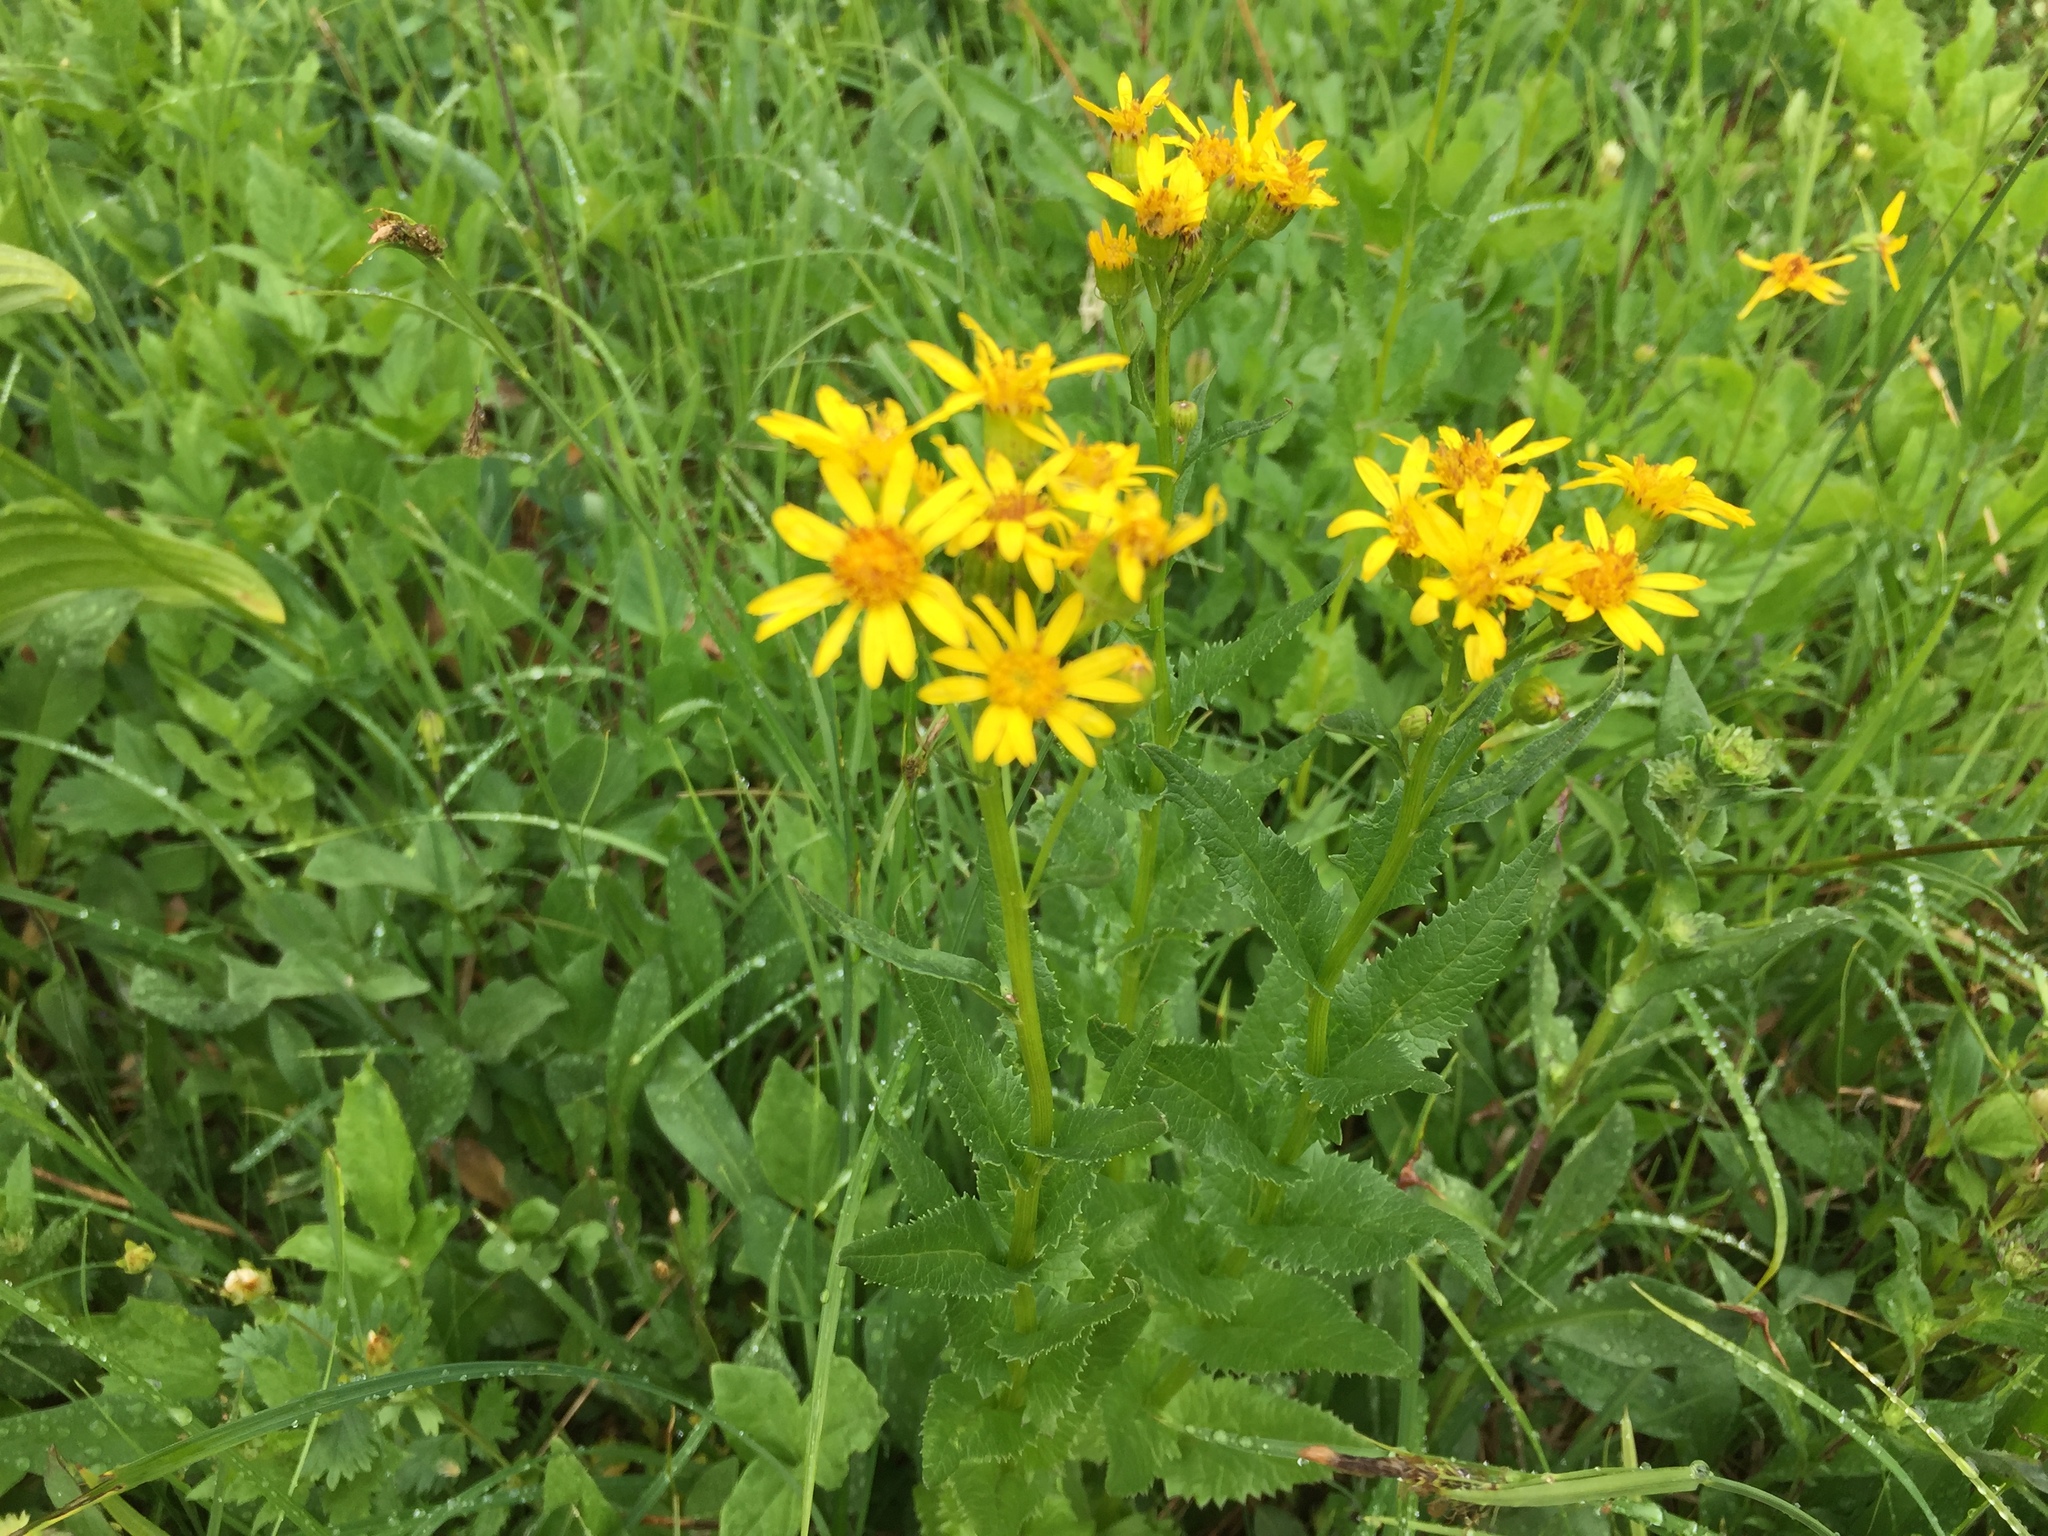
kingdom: Plantae
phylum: Tracheophyta
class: Magnoliopsida
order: Asterales
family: Asteraceae
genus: Senecio
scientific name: Senecio triangularis
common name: Arrowleaf butterweed
